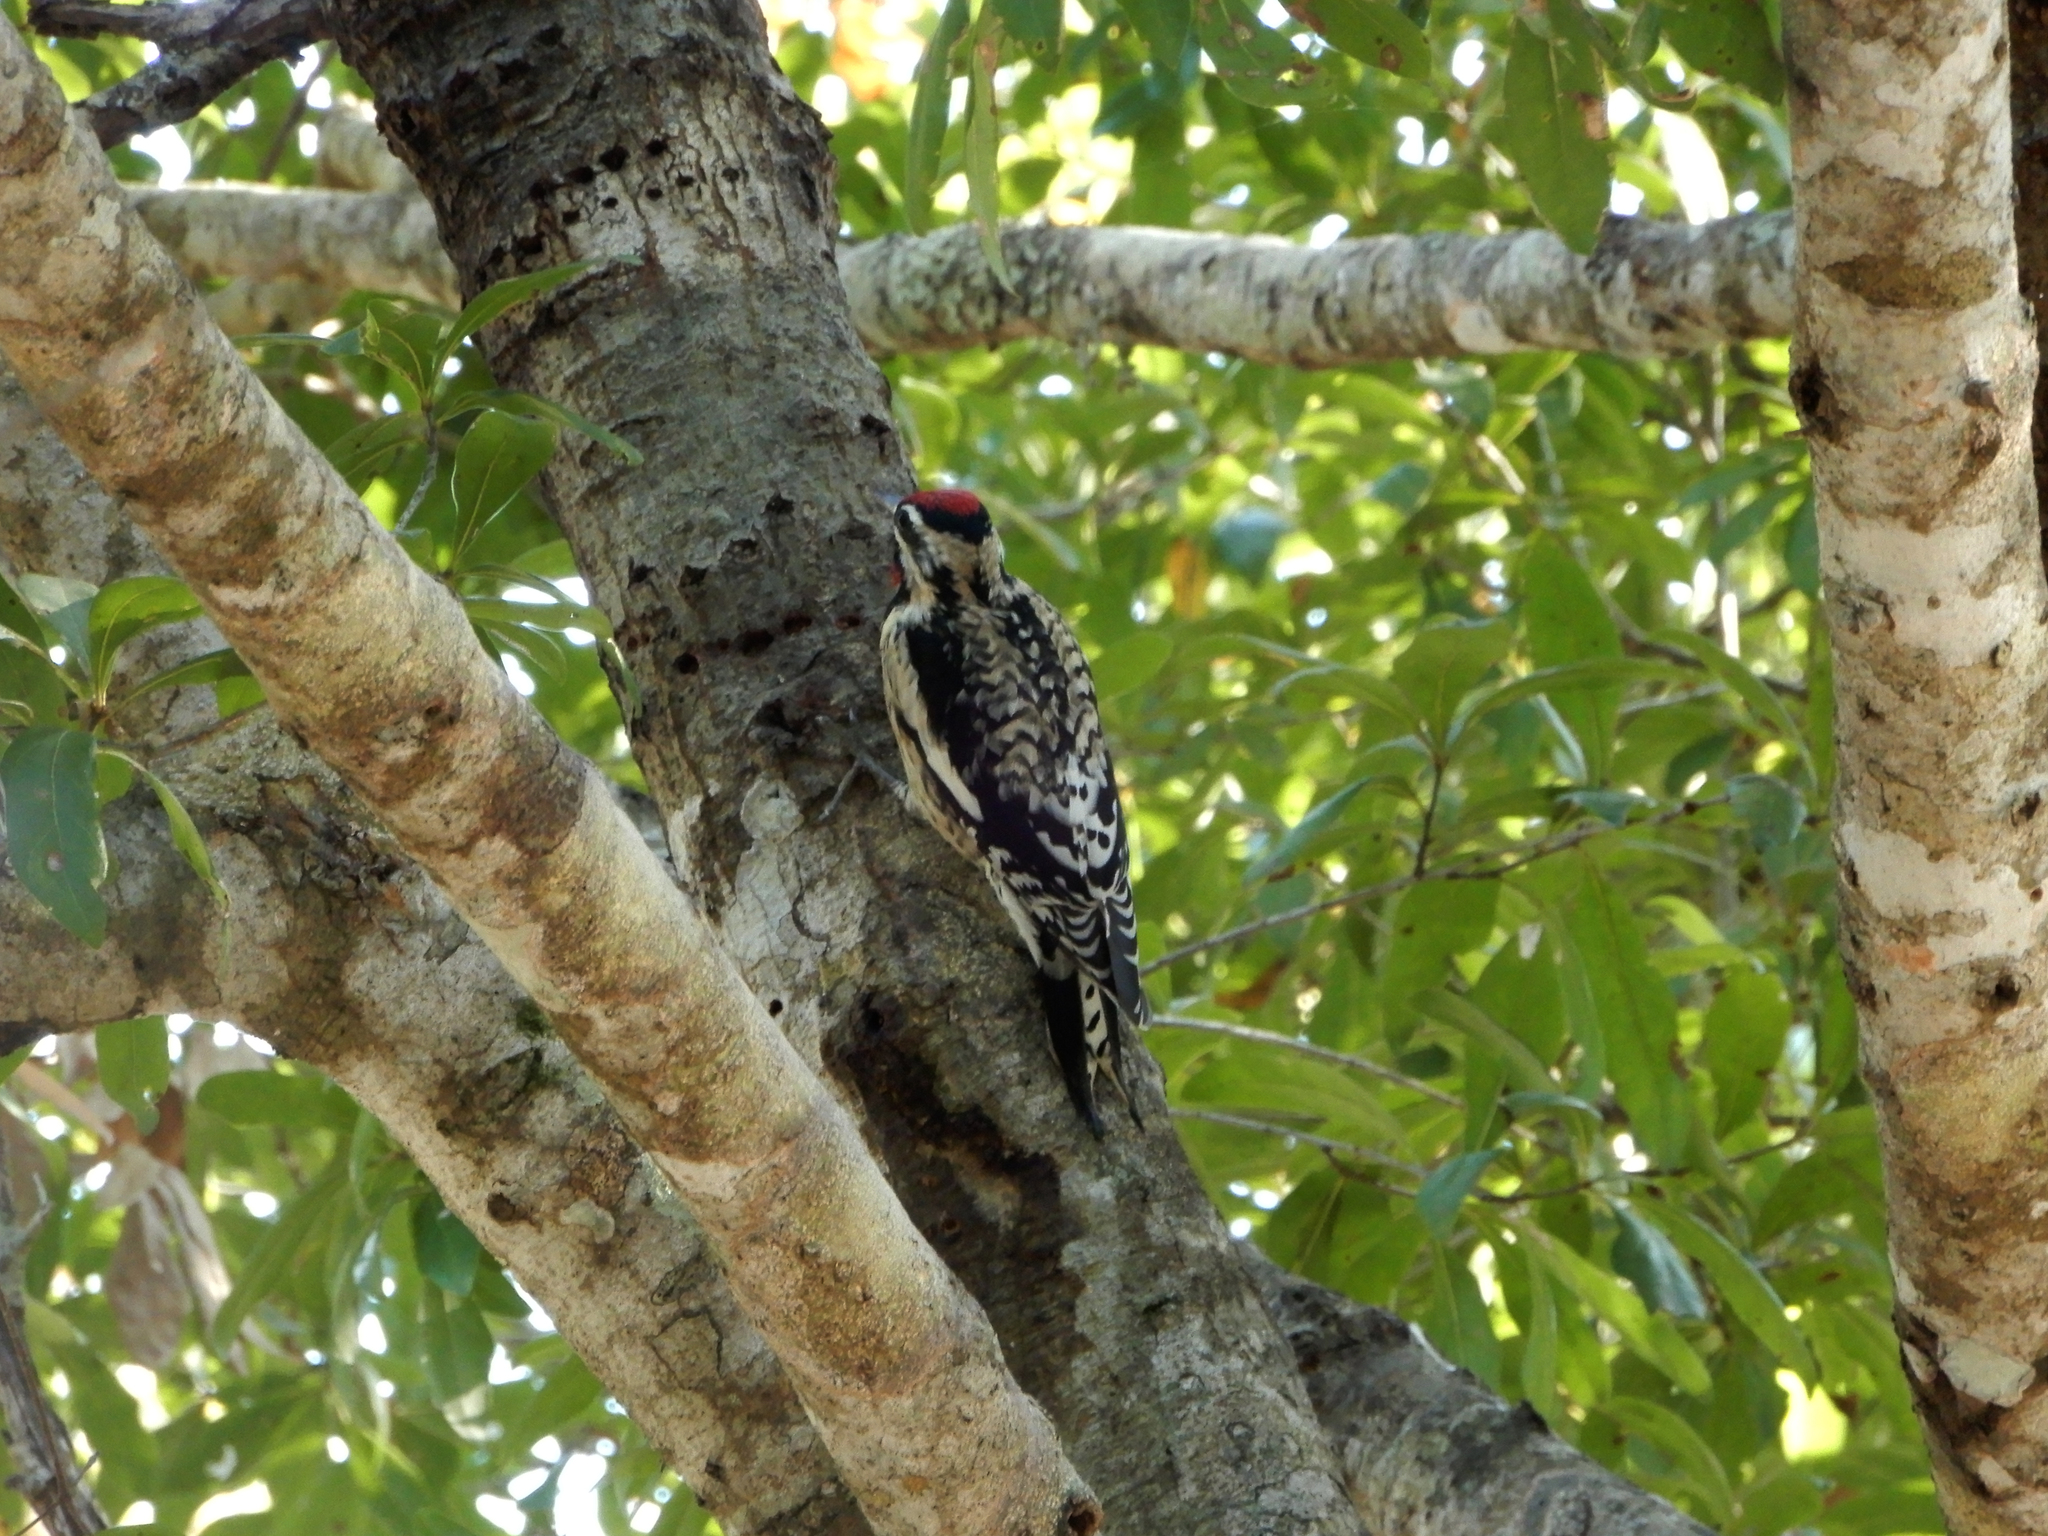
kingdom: Animalia
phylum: Chordata
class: Aves
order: Piciformes
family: Picidae
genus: Sphyrapicus
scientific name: Sphyrapicus varius
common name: Yellow-bellied sapsucker
